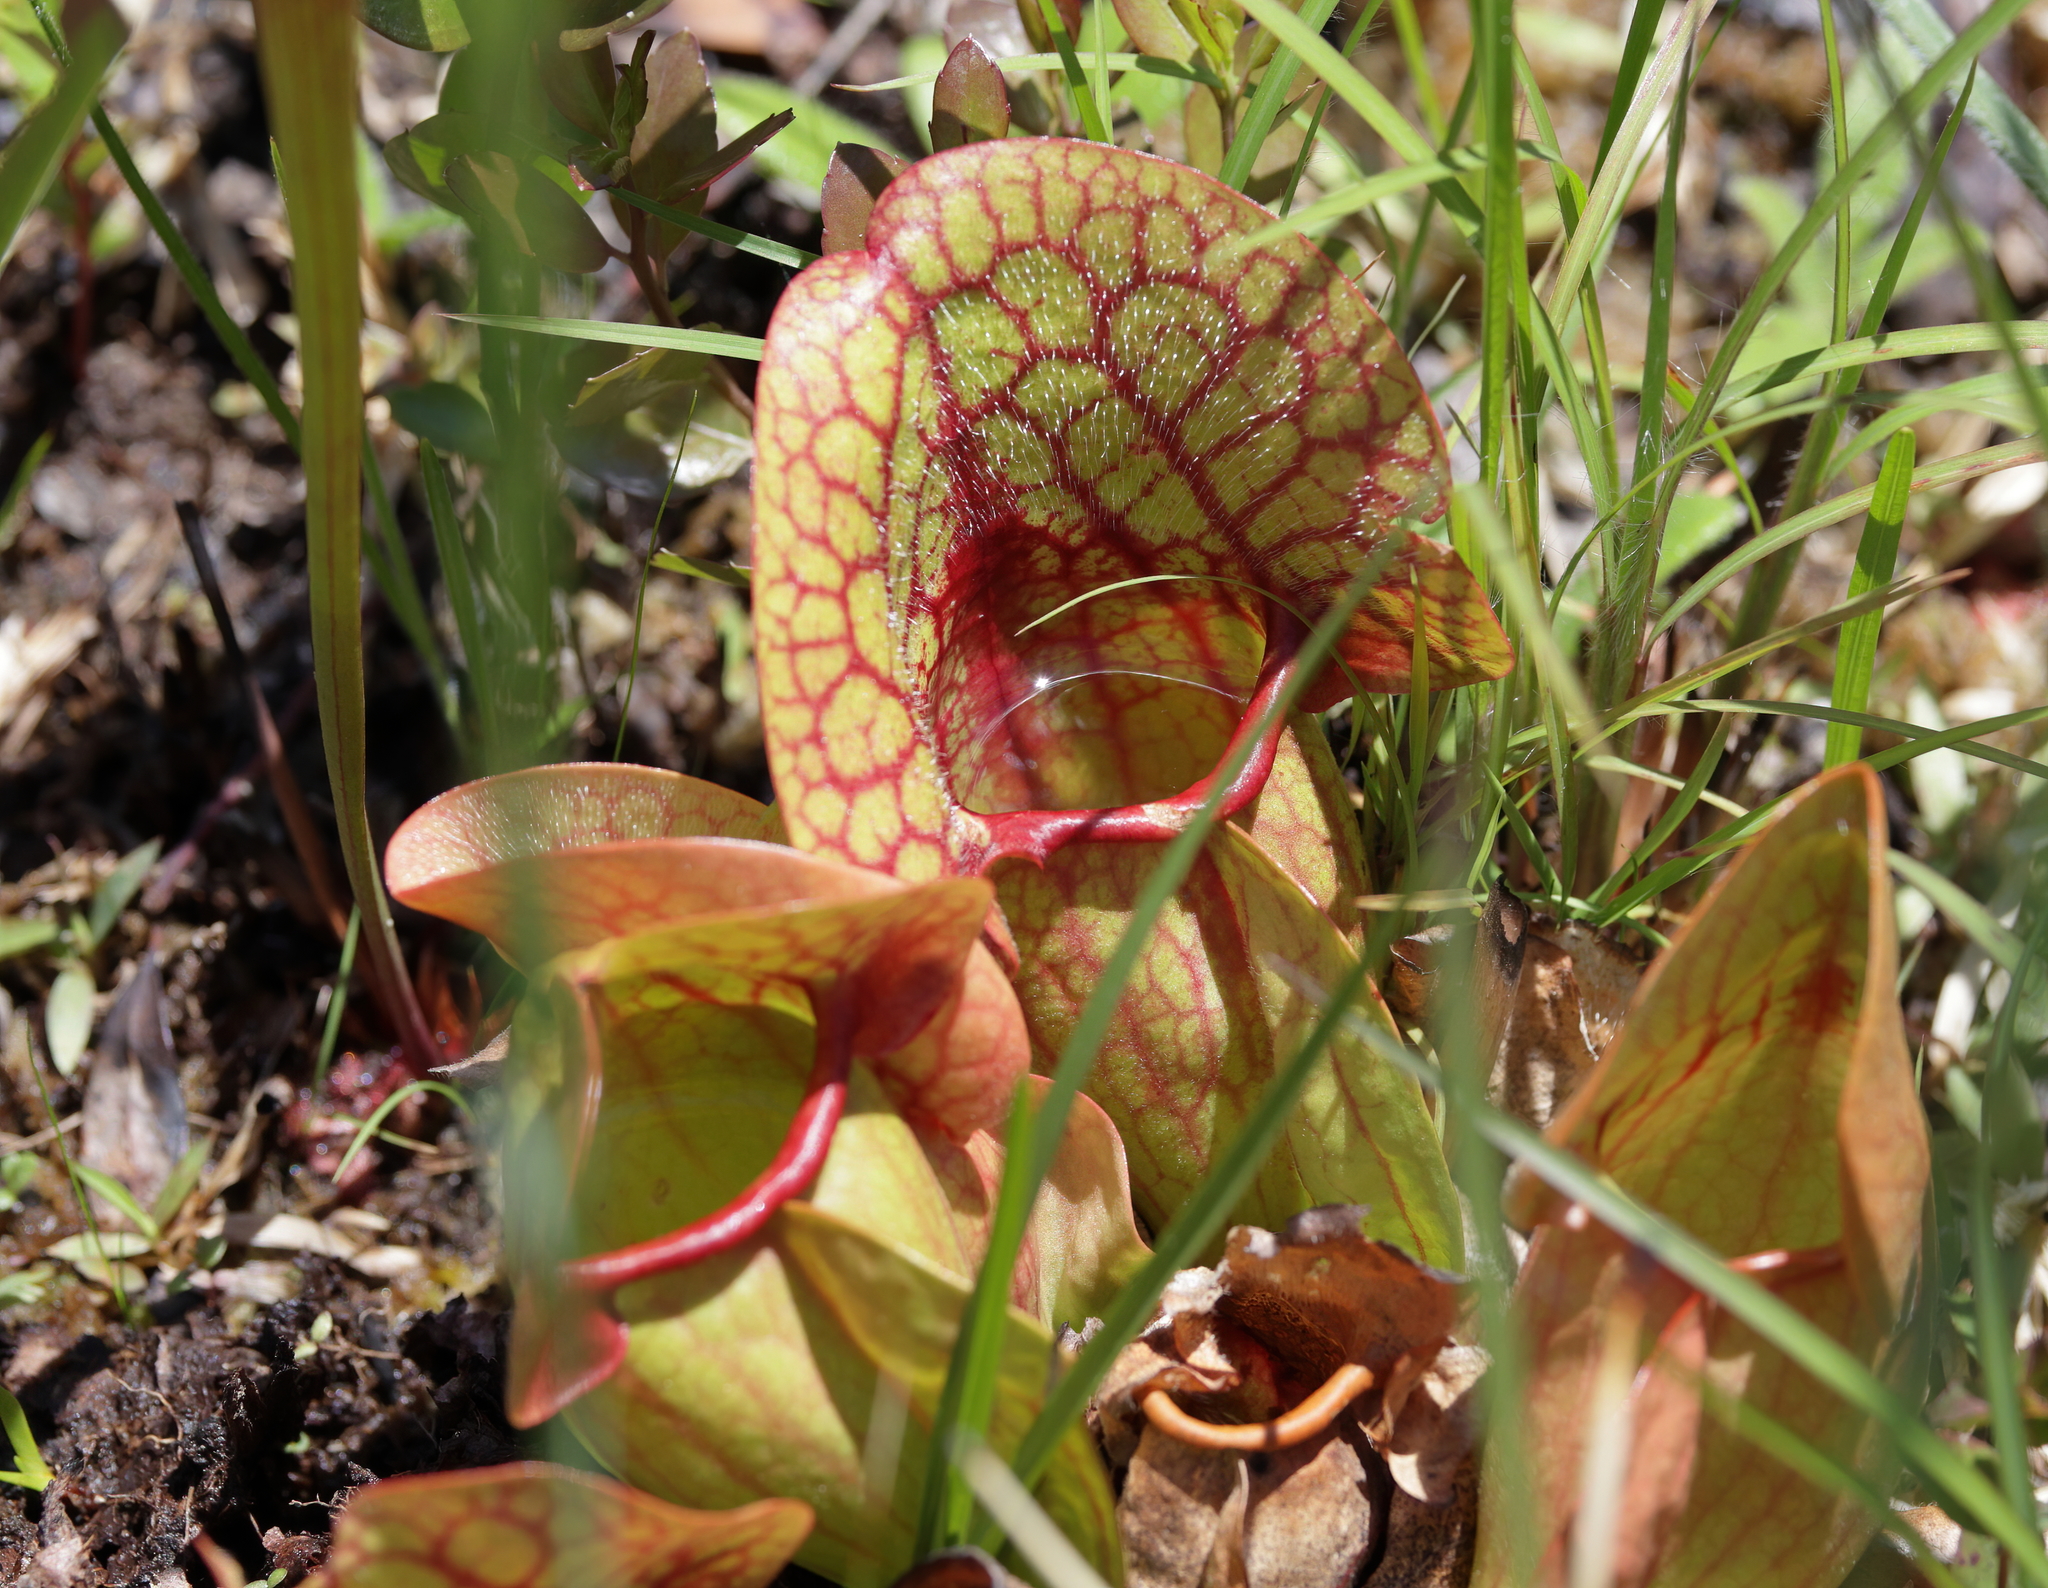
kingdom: Plantae
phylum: Tracheophyta
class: Magnoliopsida
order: Ericales
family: Sarraceniaceae
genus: Sarracenia
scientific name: Sarracenia rosea
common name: Pink pitcherplant
